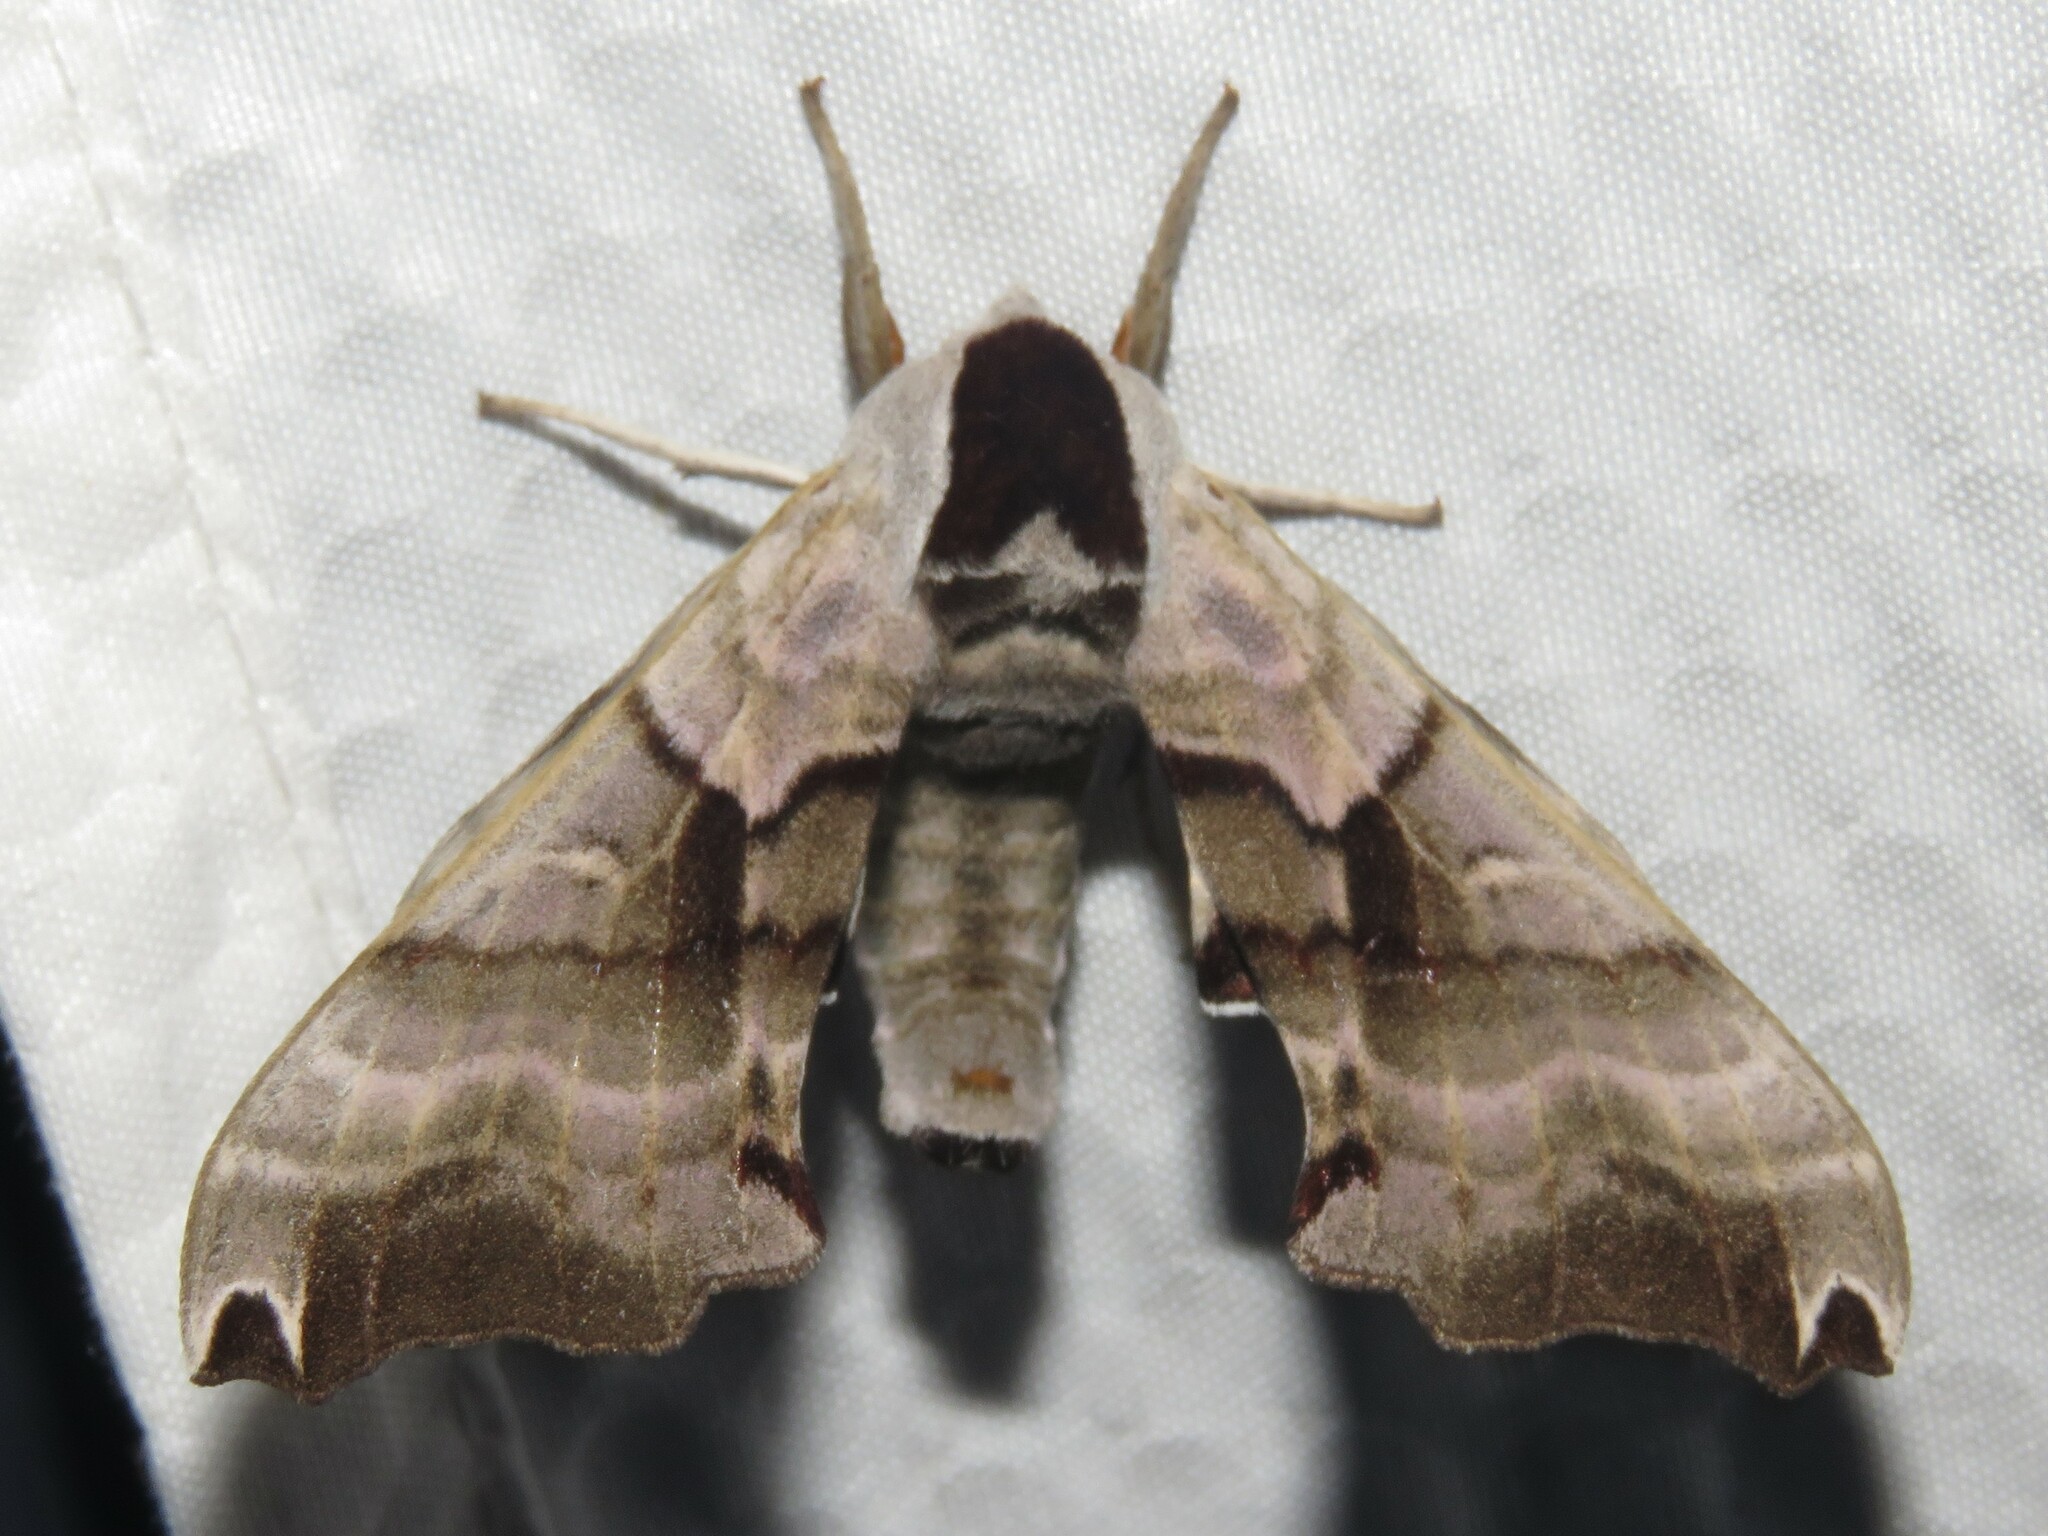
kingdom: Animalia
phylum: Arthropoda
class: Insecta
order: Lepidoptera
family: Sphingidae
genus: Smerinthus
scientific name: Smerinthus jamaicensis
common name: Twin spotted sphinx
